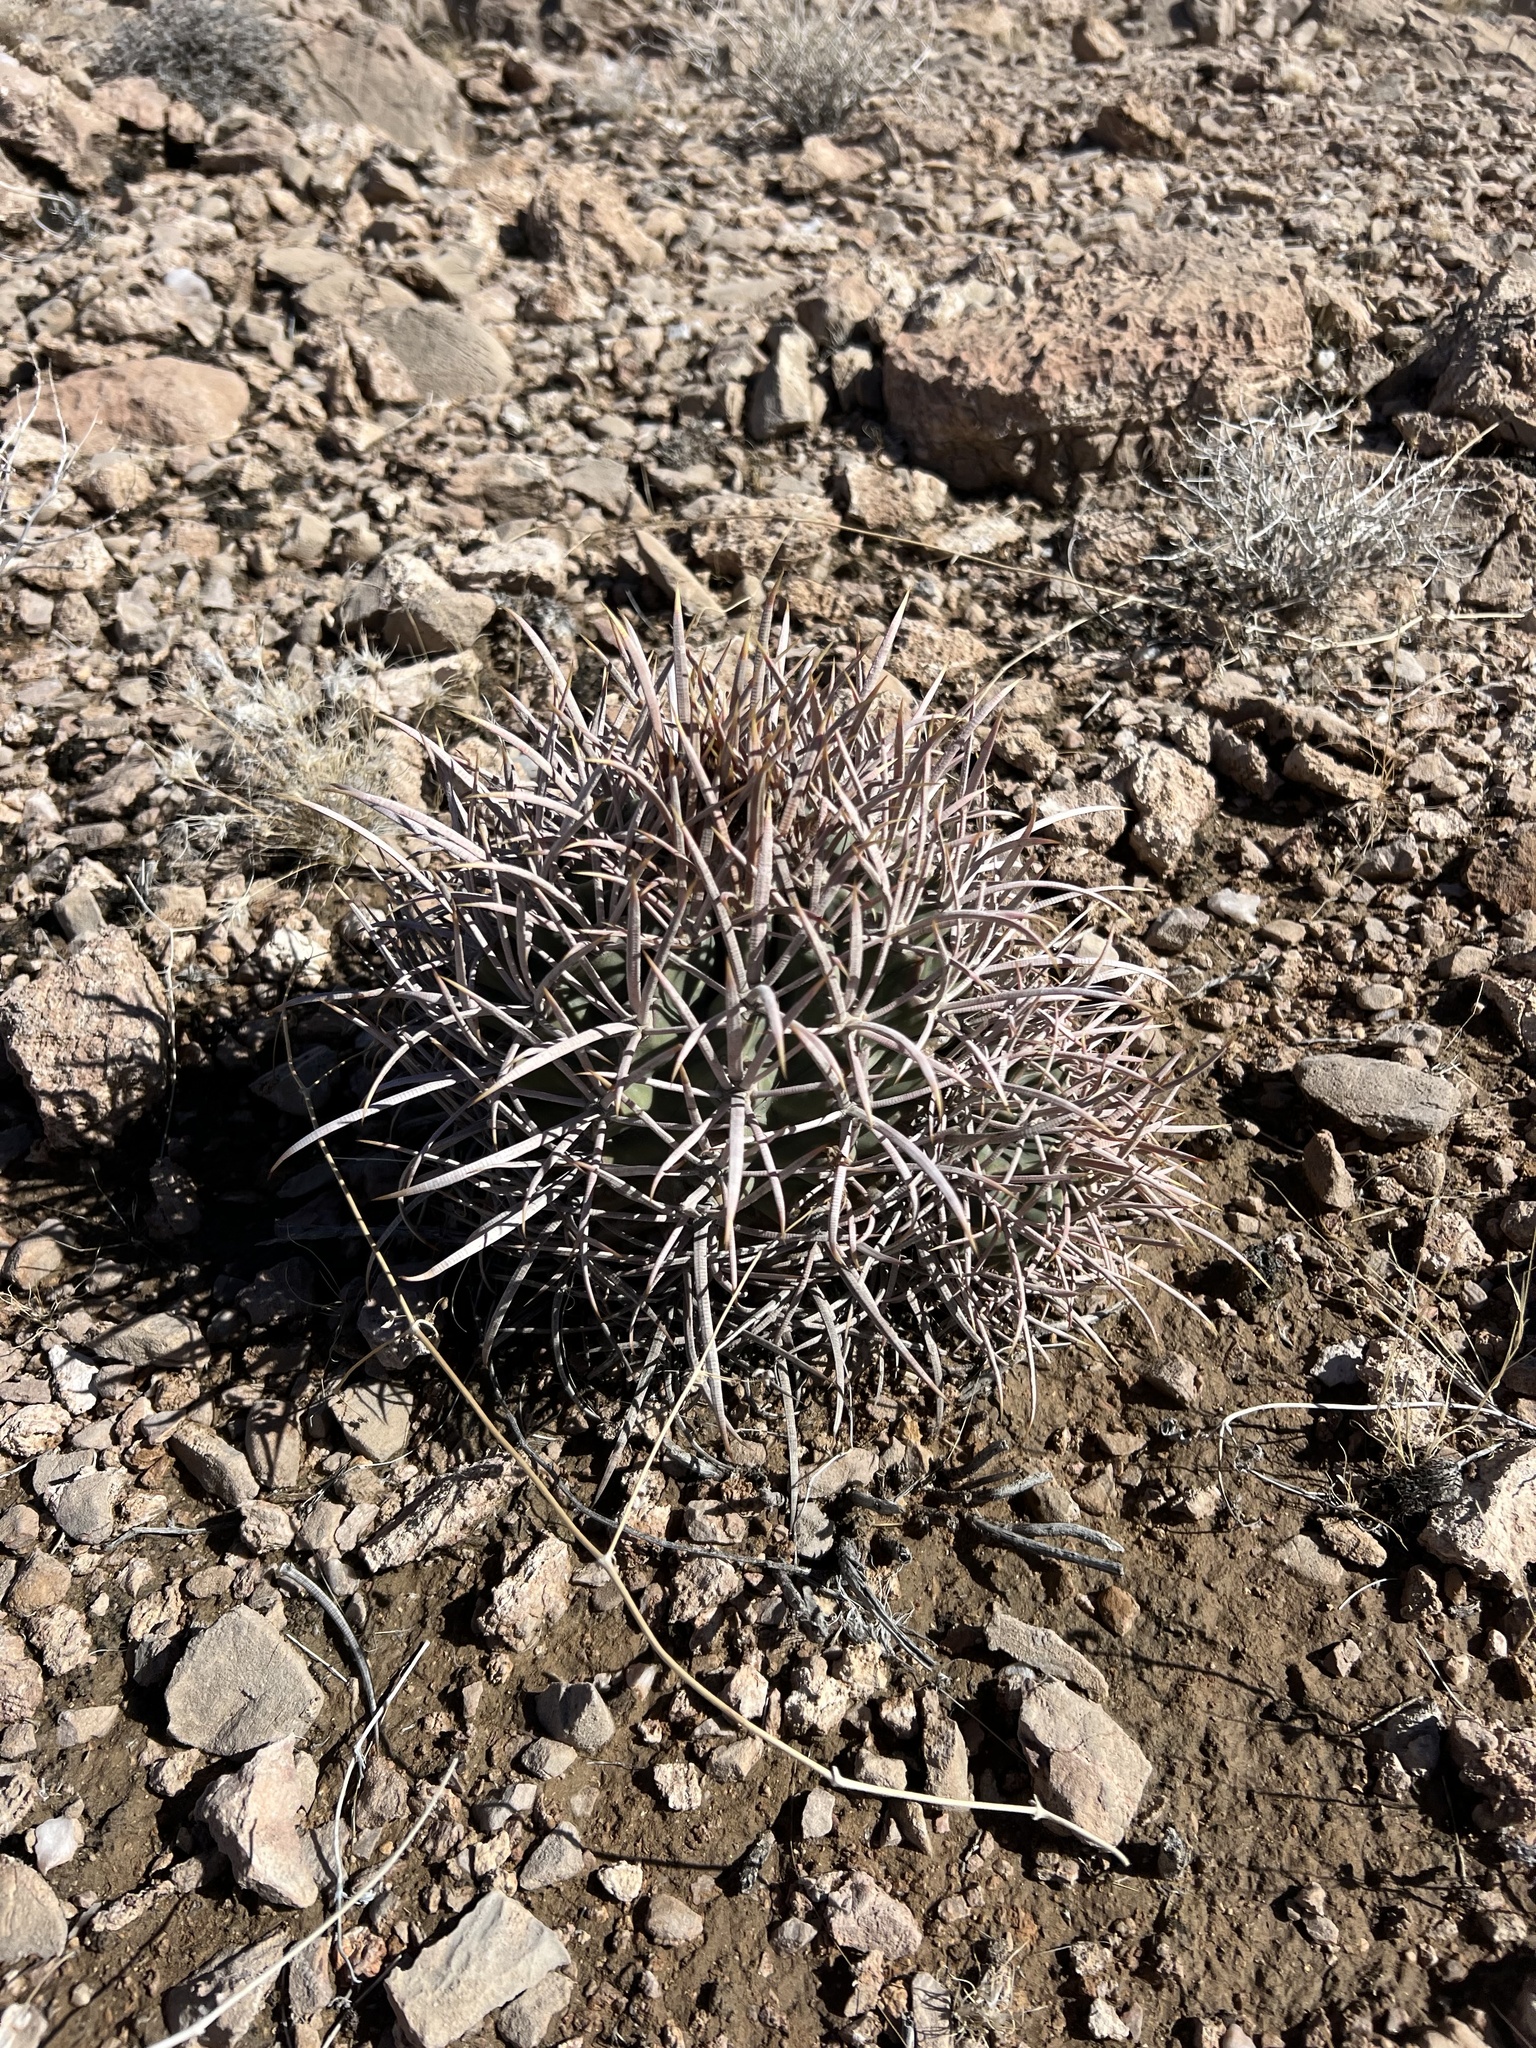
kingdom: Plantae
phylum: Tracheophyta
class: Magnoliopsida
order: Caryophyllales
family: Cactaceae
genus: Echinocactus
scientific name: Echinocactus polycephalus
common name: Cottontop cactus
